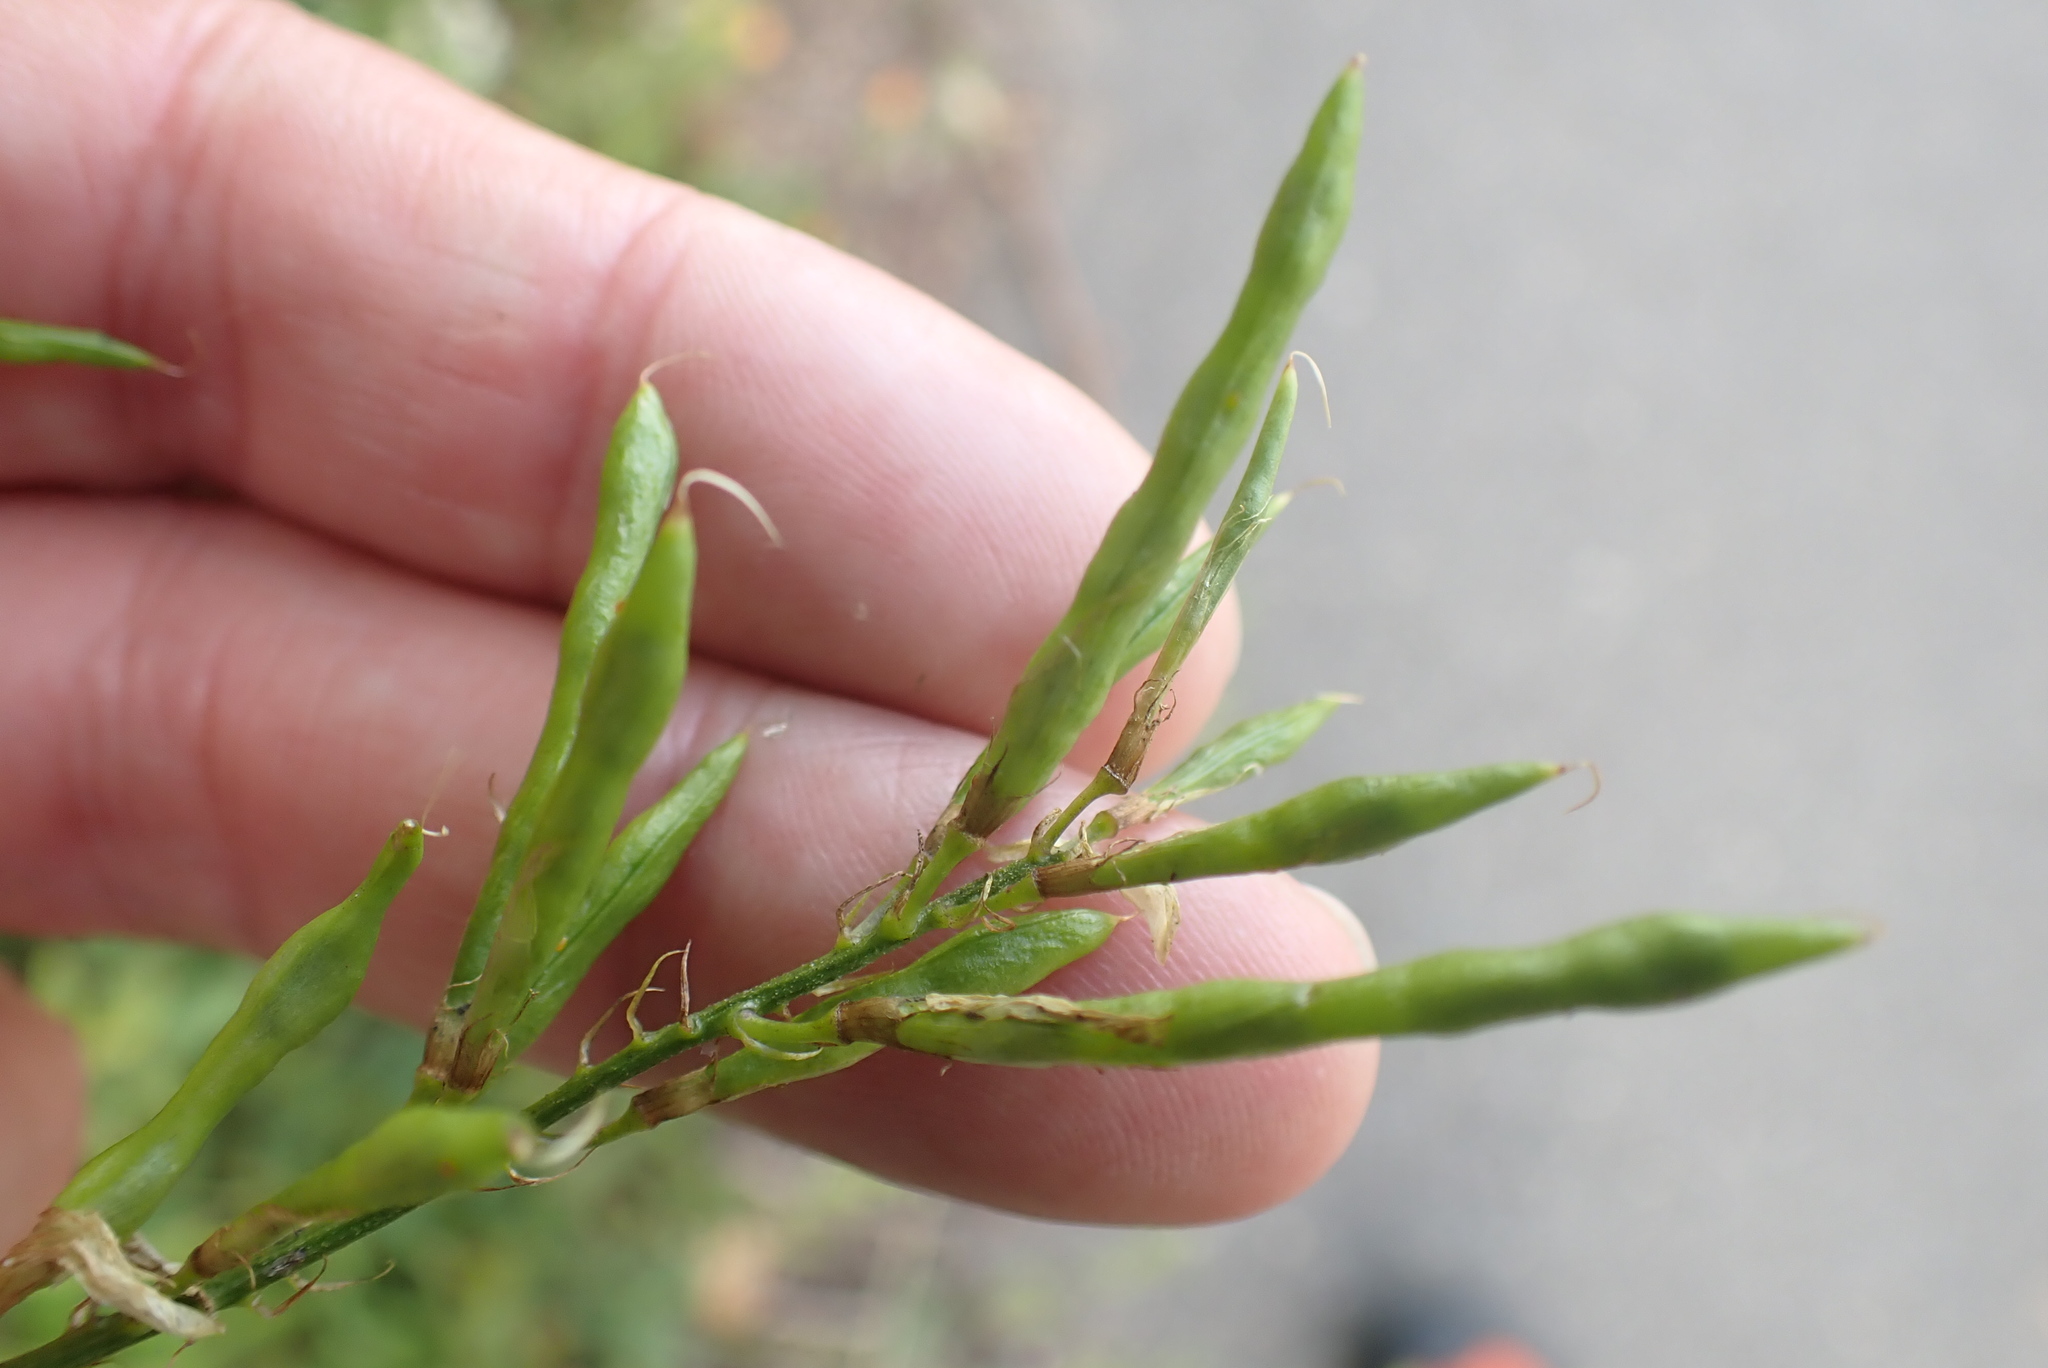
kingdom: Plantae
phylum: Tracheophyta
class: Magnoliopsida
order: Fabales
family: Fabaceae
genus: Galega
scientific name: Galega officinalis
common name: Goat's-rue
